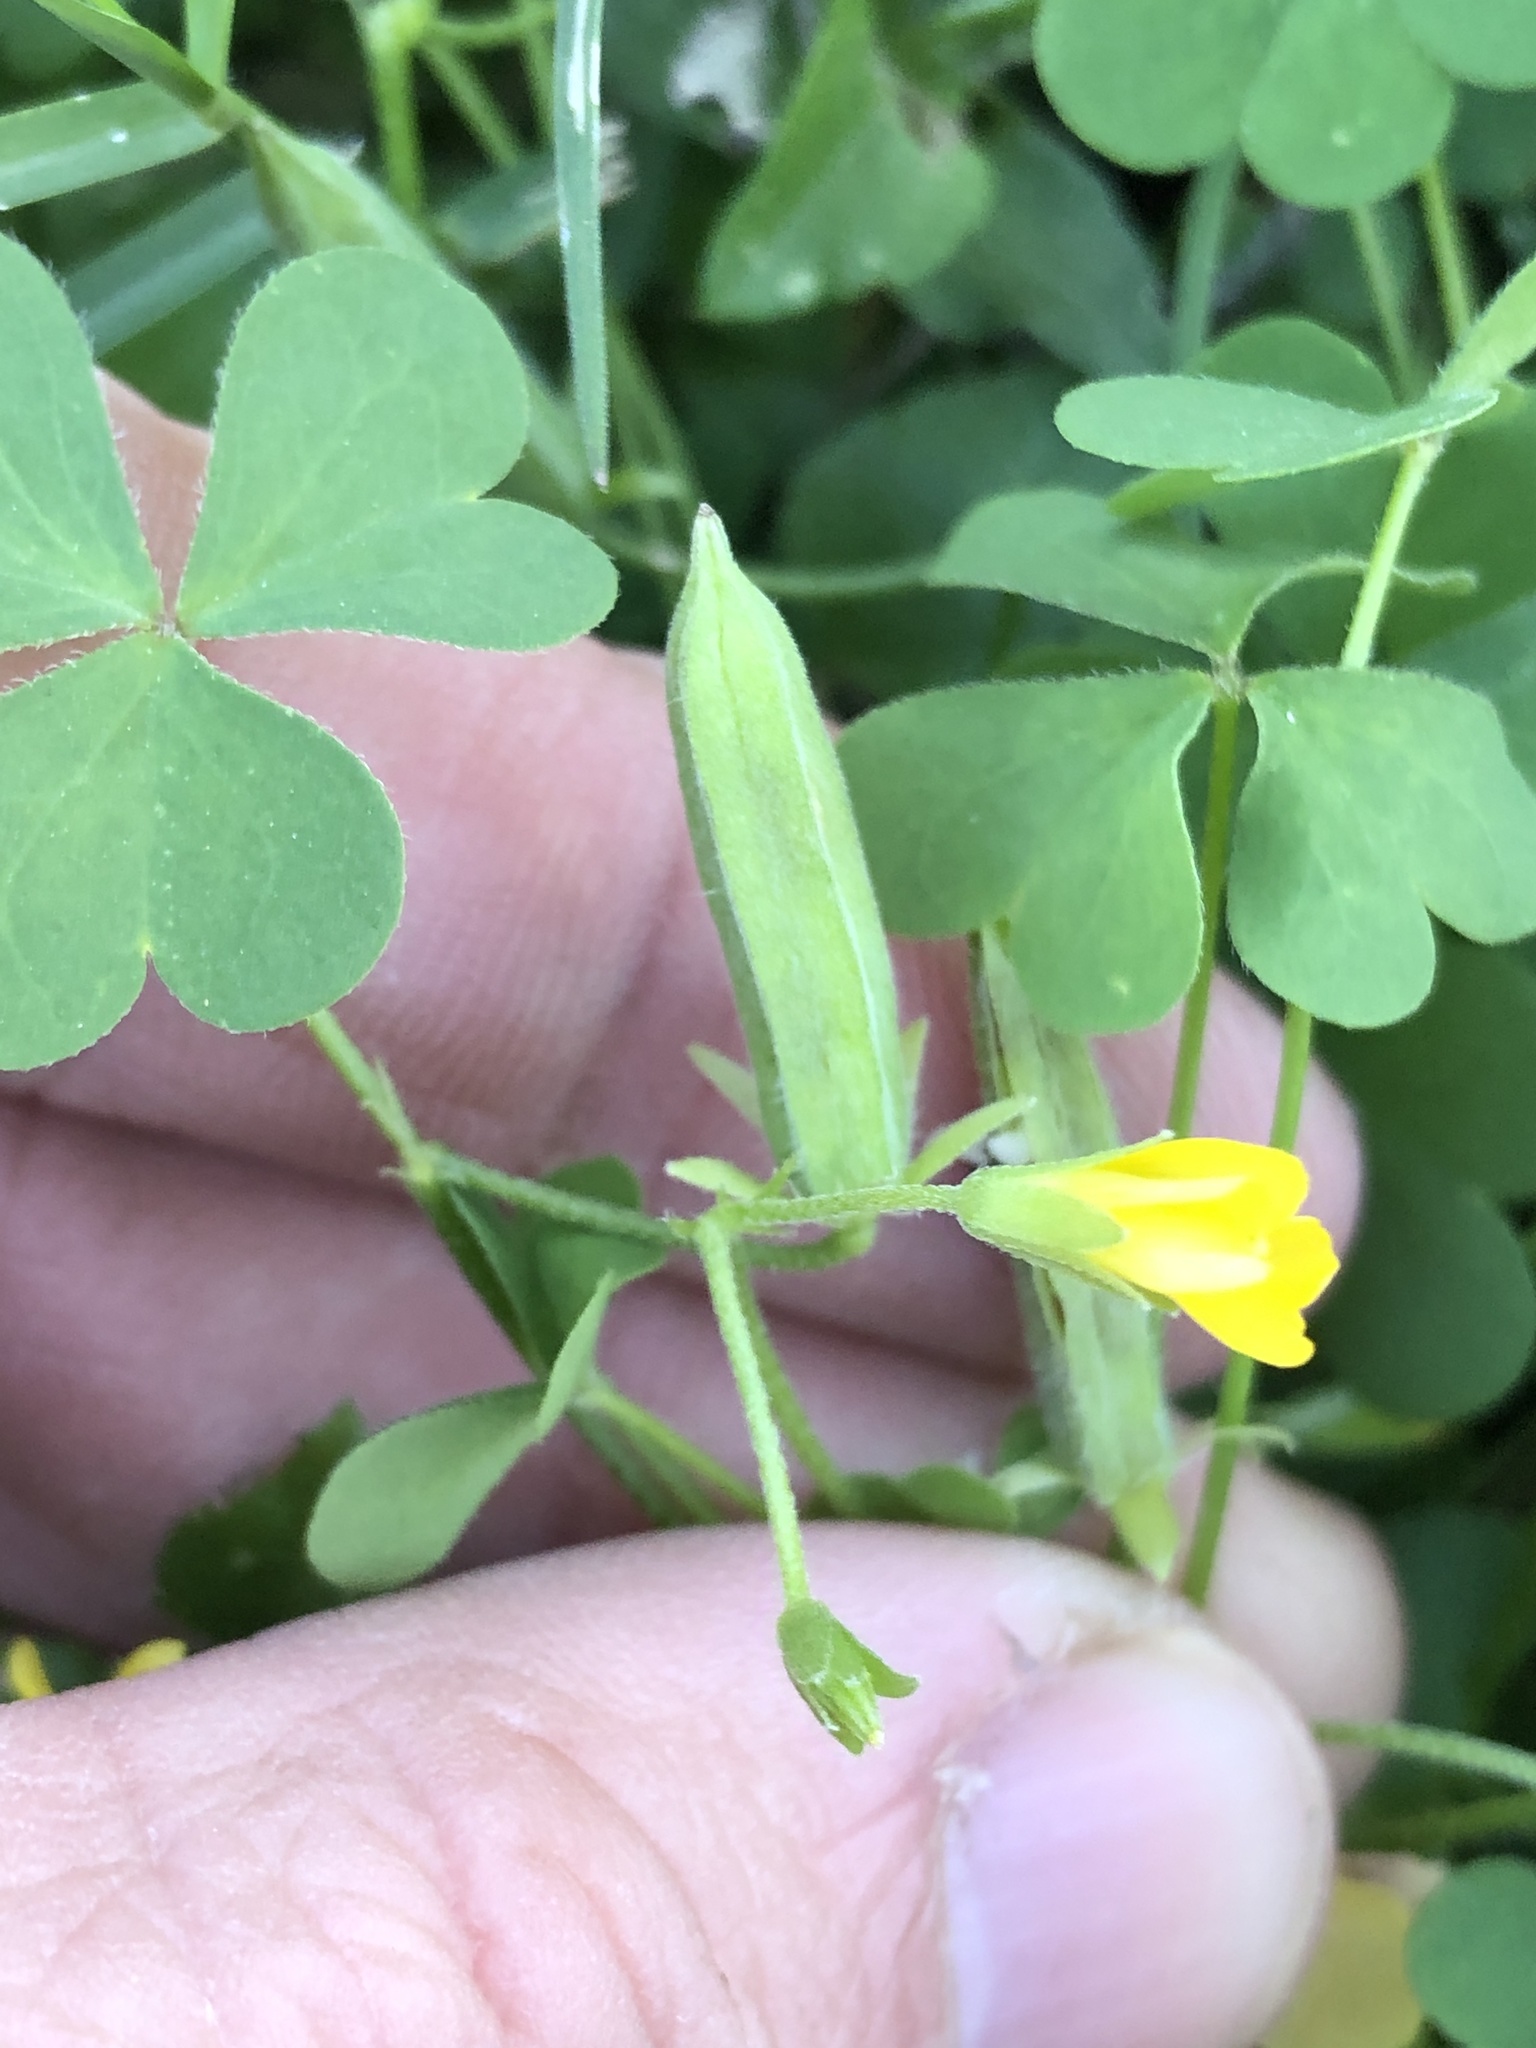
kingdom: Plantae
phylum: Tracheophyta
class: Magnoliopsida
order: Oxalidales
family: Oxalidaceae
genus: Oxalis
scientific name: Oxalis dillenii
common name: Sussex yellow-sorrel
